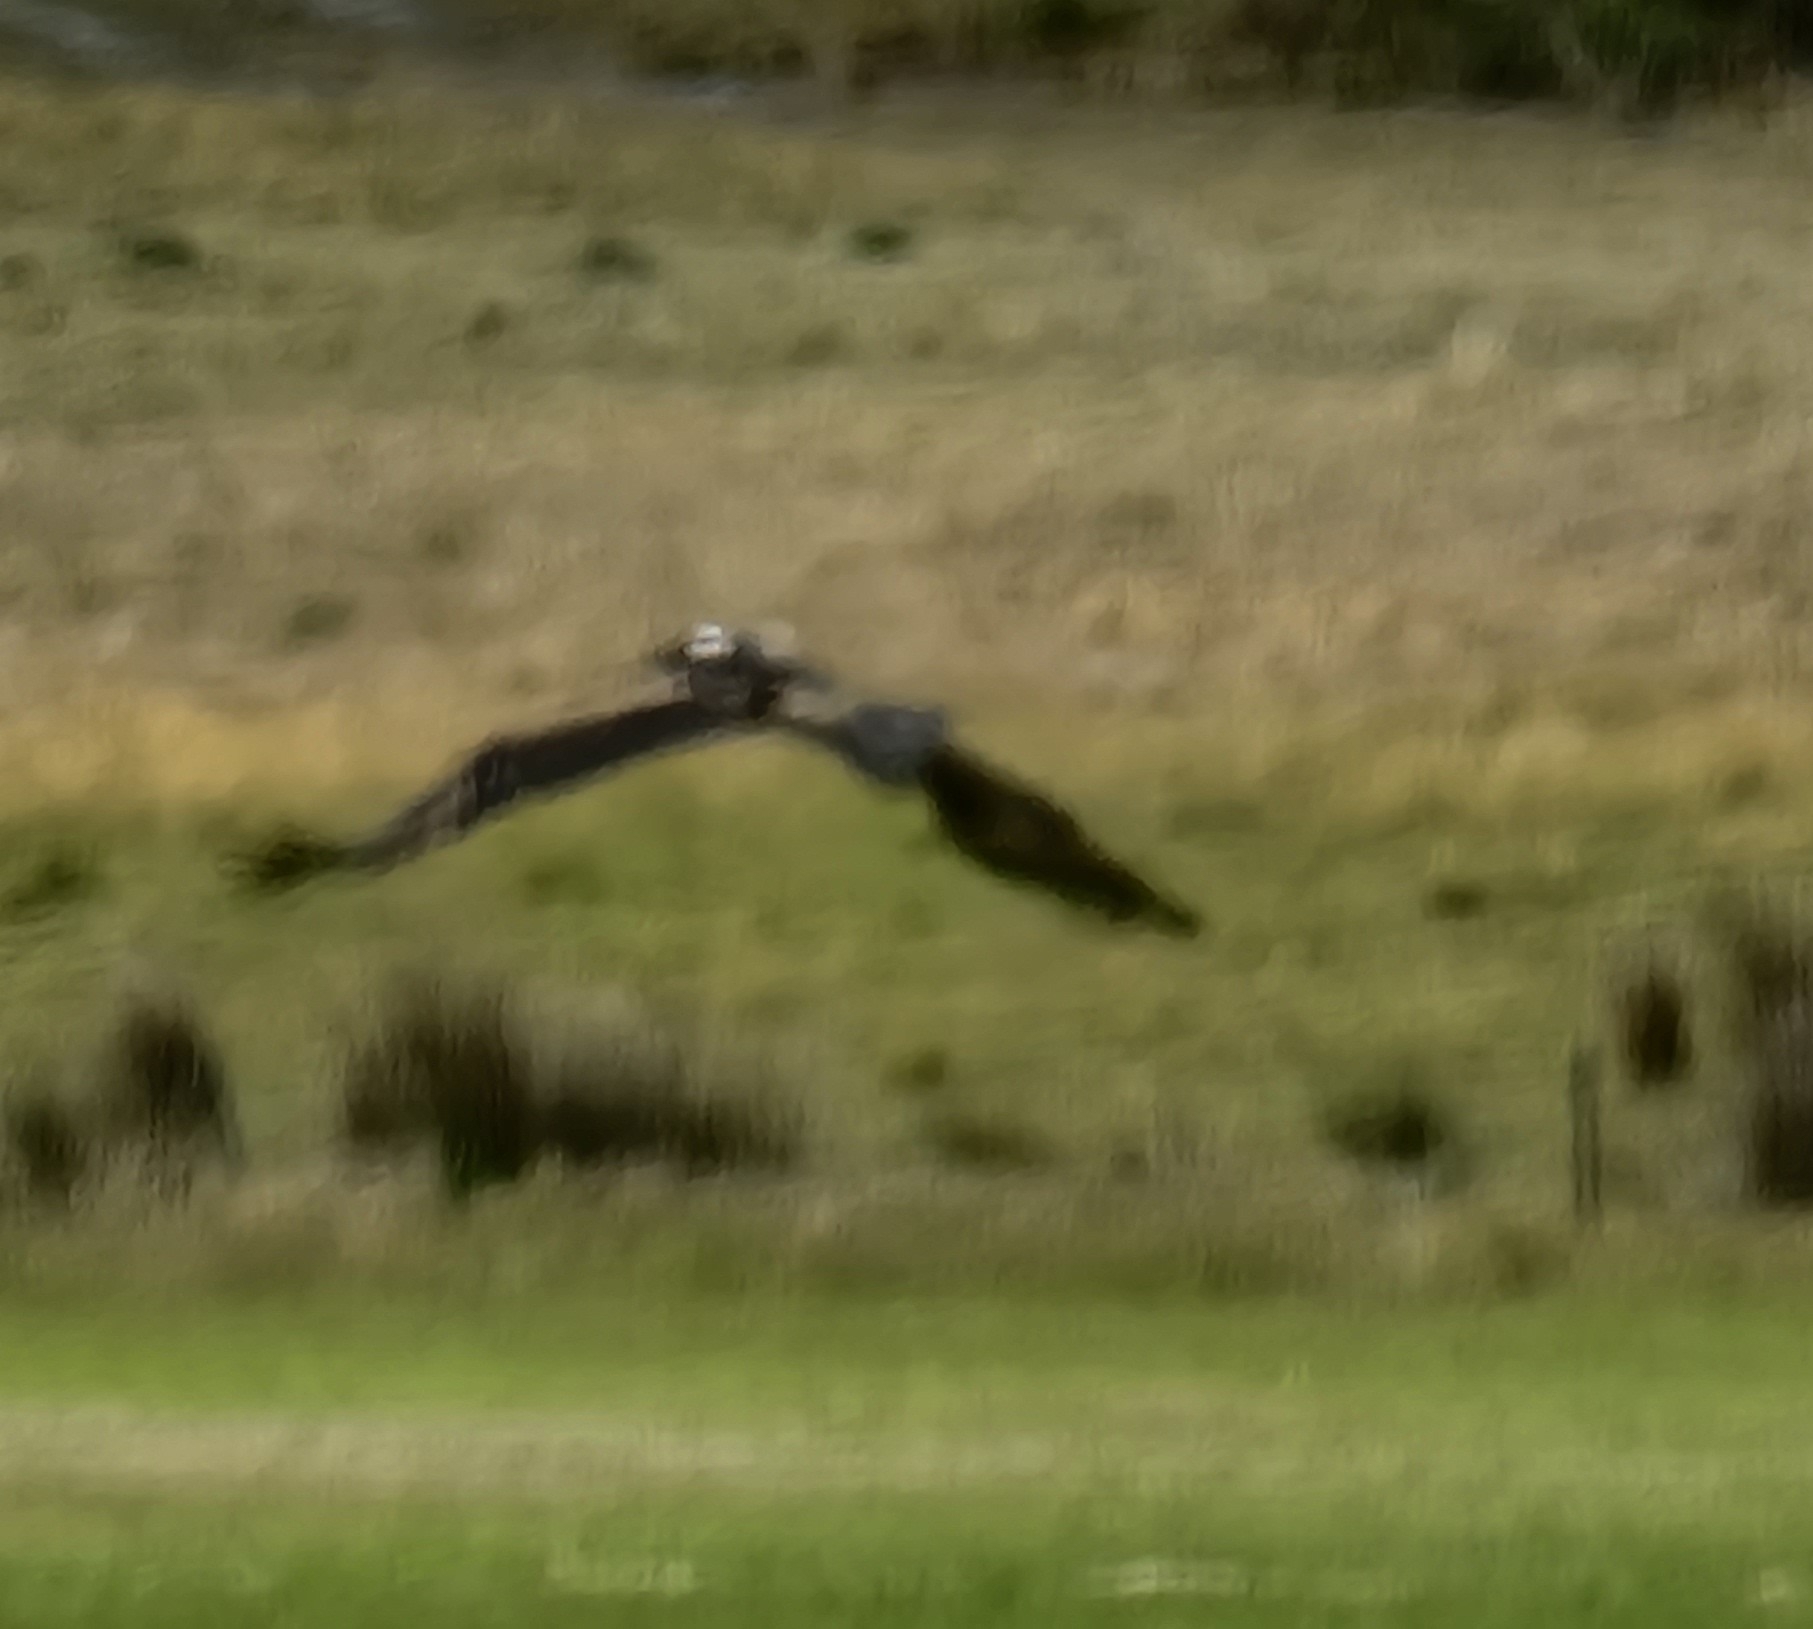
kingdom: Animalia
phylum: Chordata
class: Aves
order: Accipitriformes
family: Accipitridae
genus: Aquila
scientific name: Aquila audax
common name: Wedge-tailed eagle
